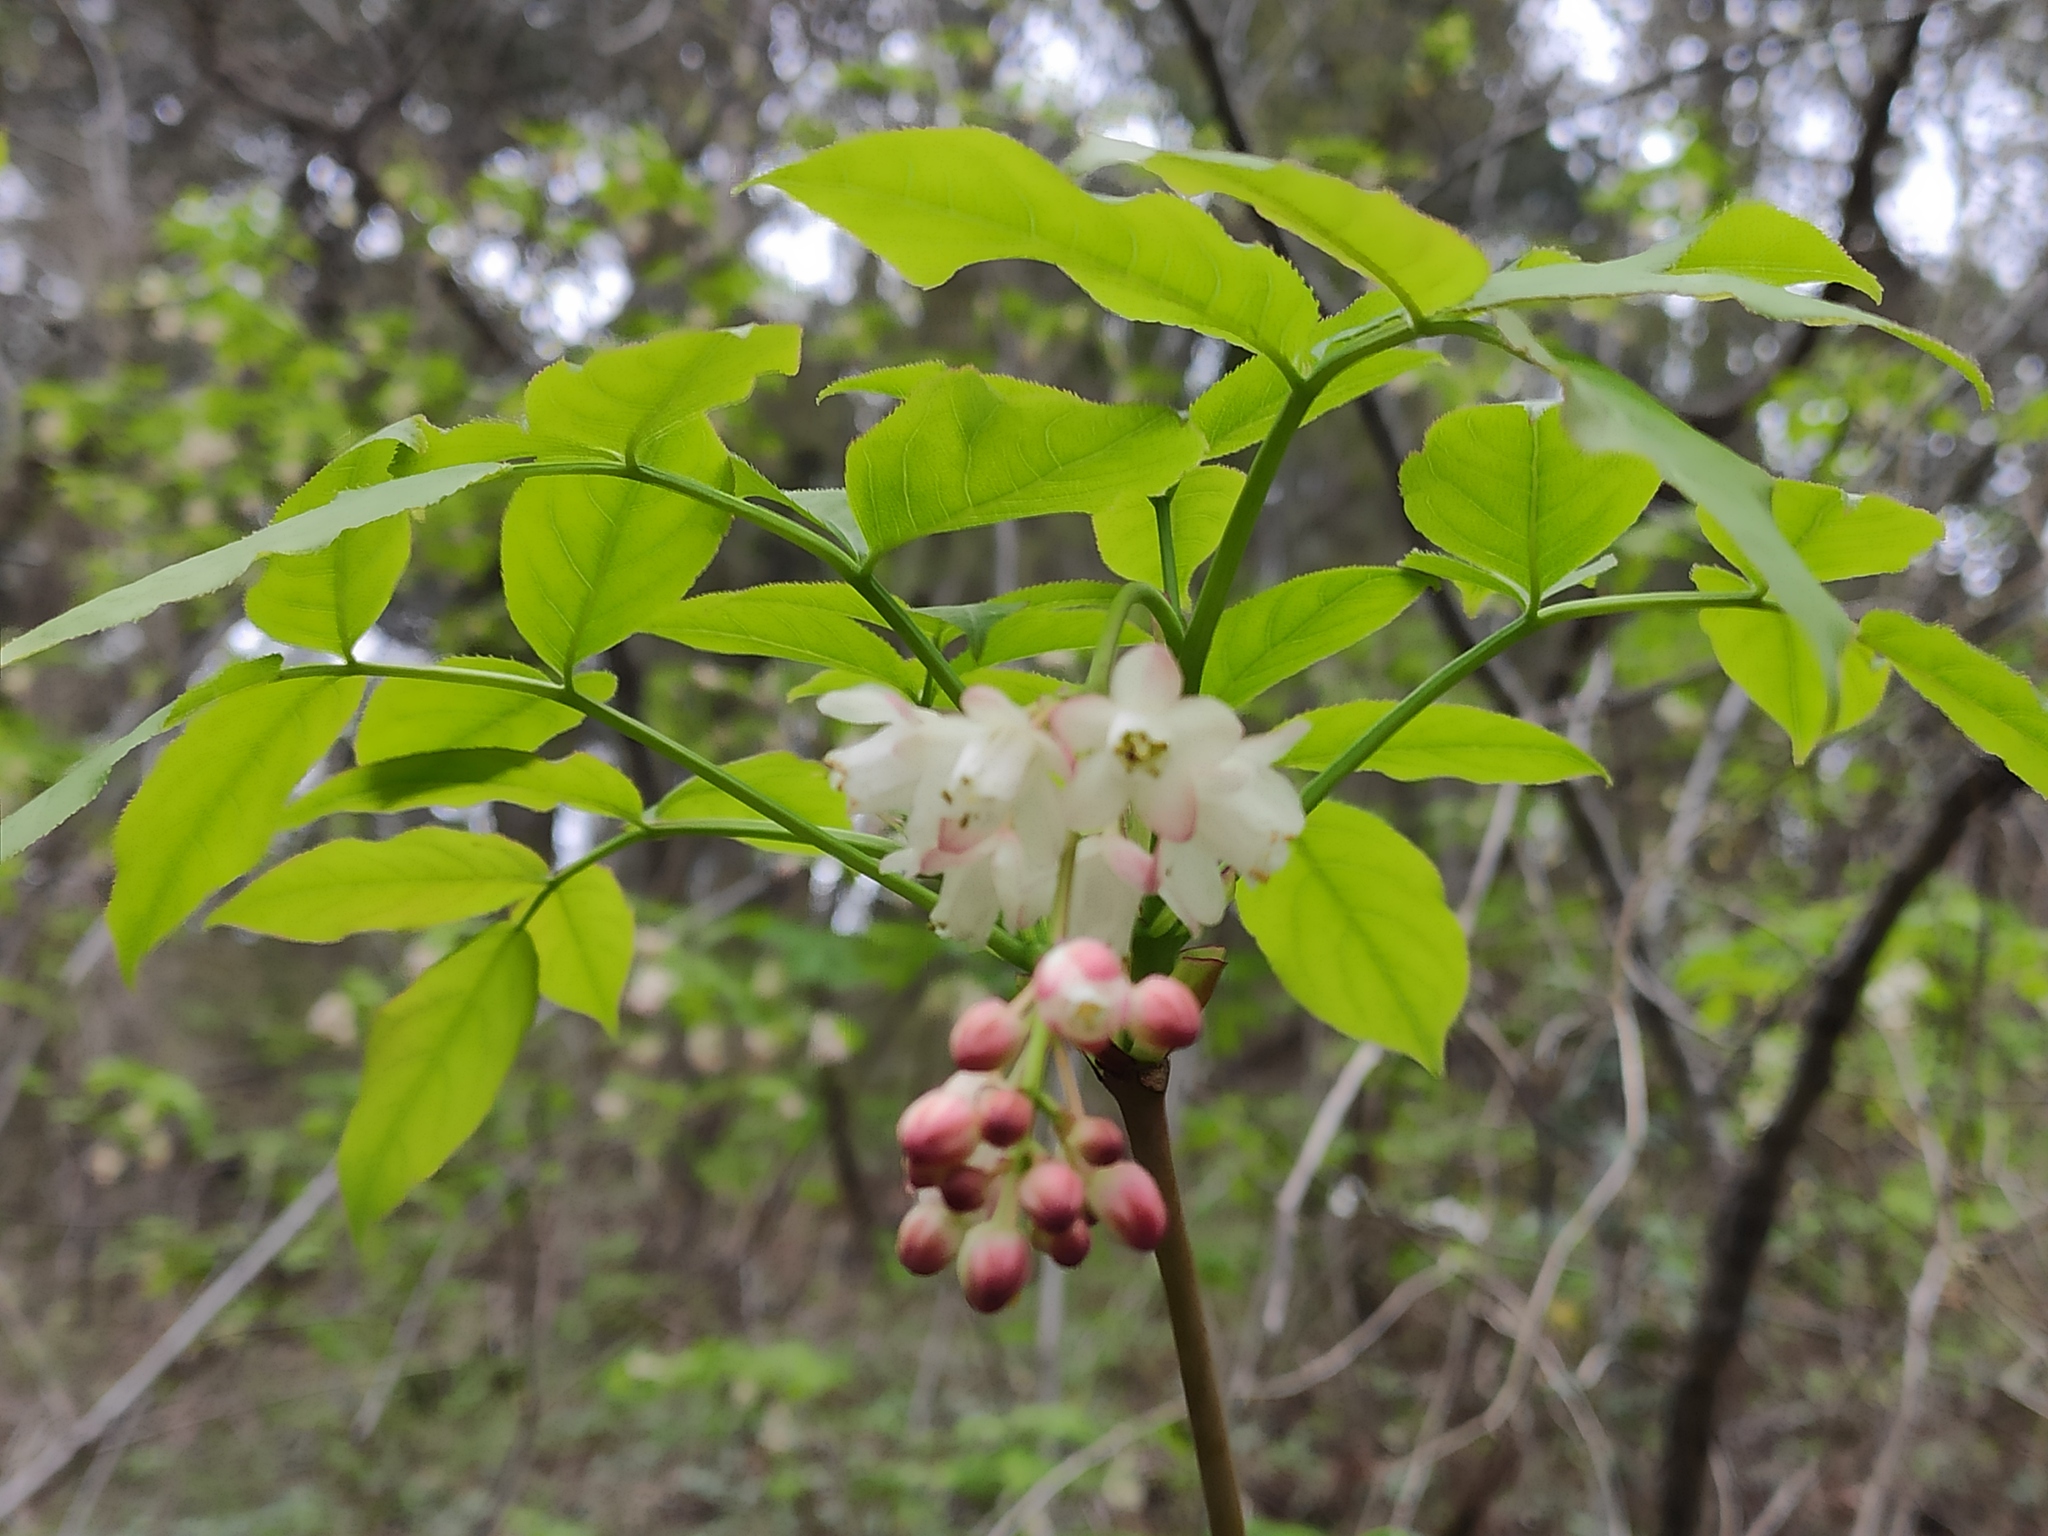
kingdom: Plantae
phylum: Tracheophyta
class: Magnoliopsida
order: Crossosomatales
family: Staphyleaceae
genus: Staphylea
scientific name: Staphylea pinnata
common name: Bladdernut
